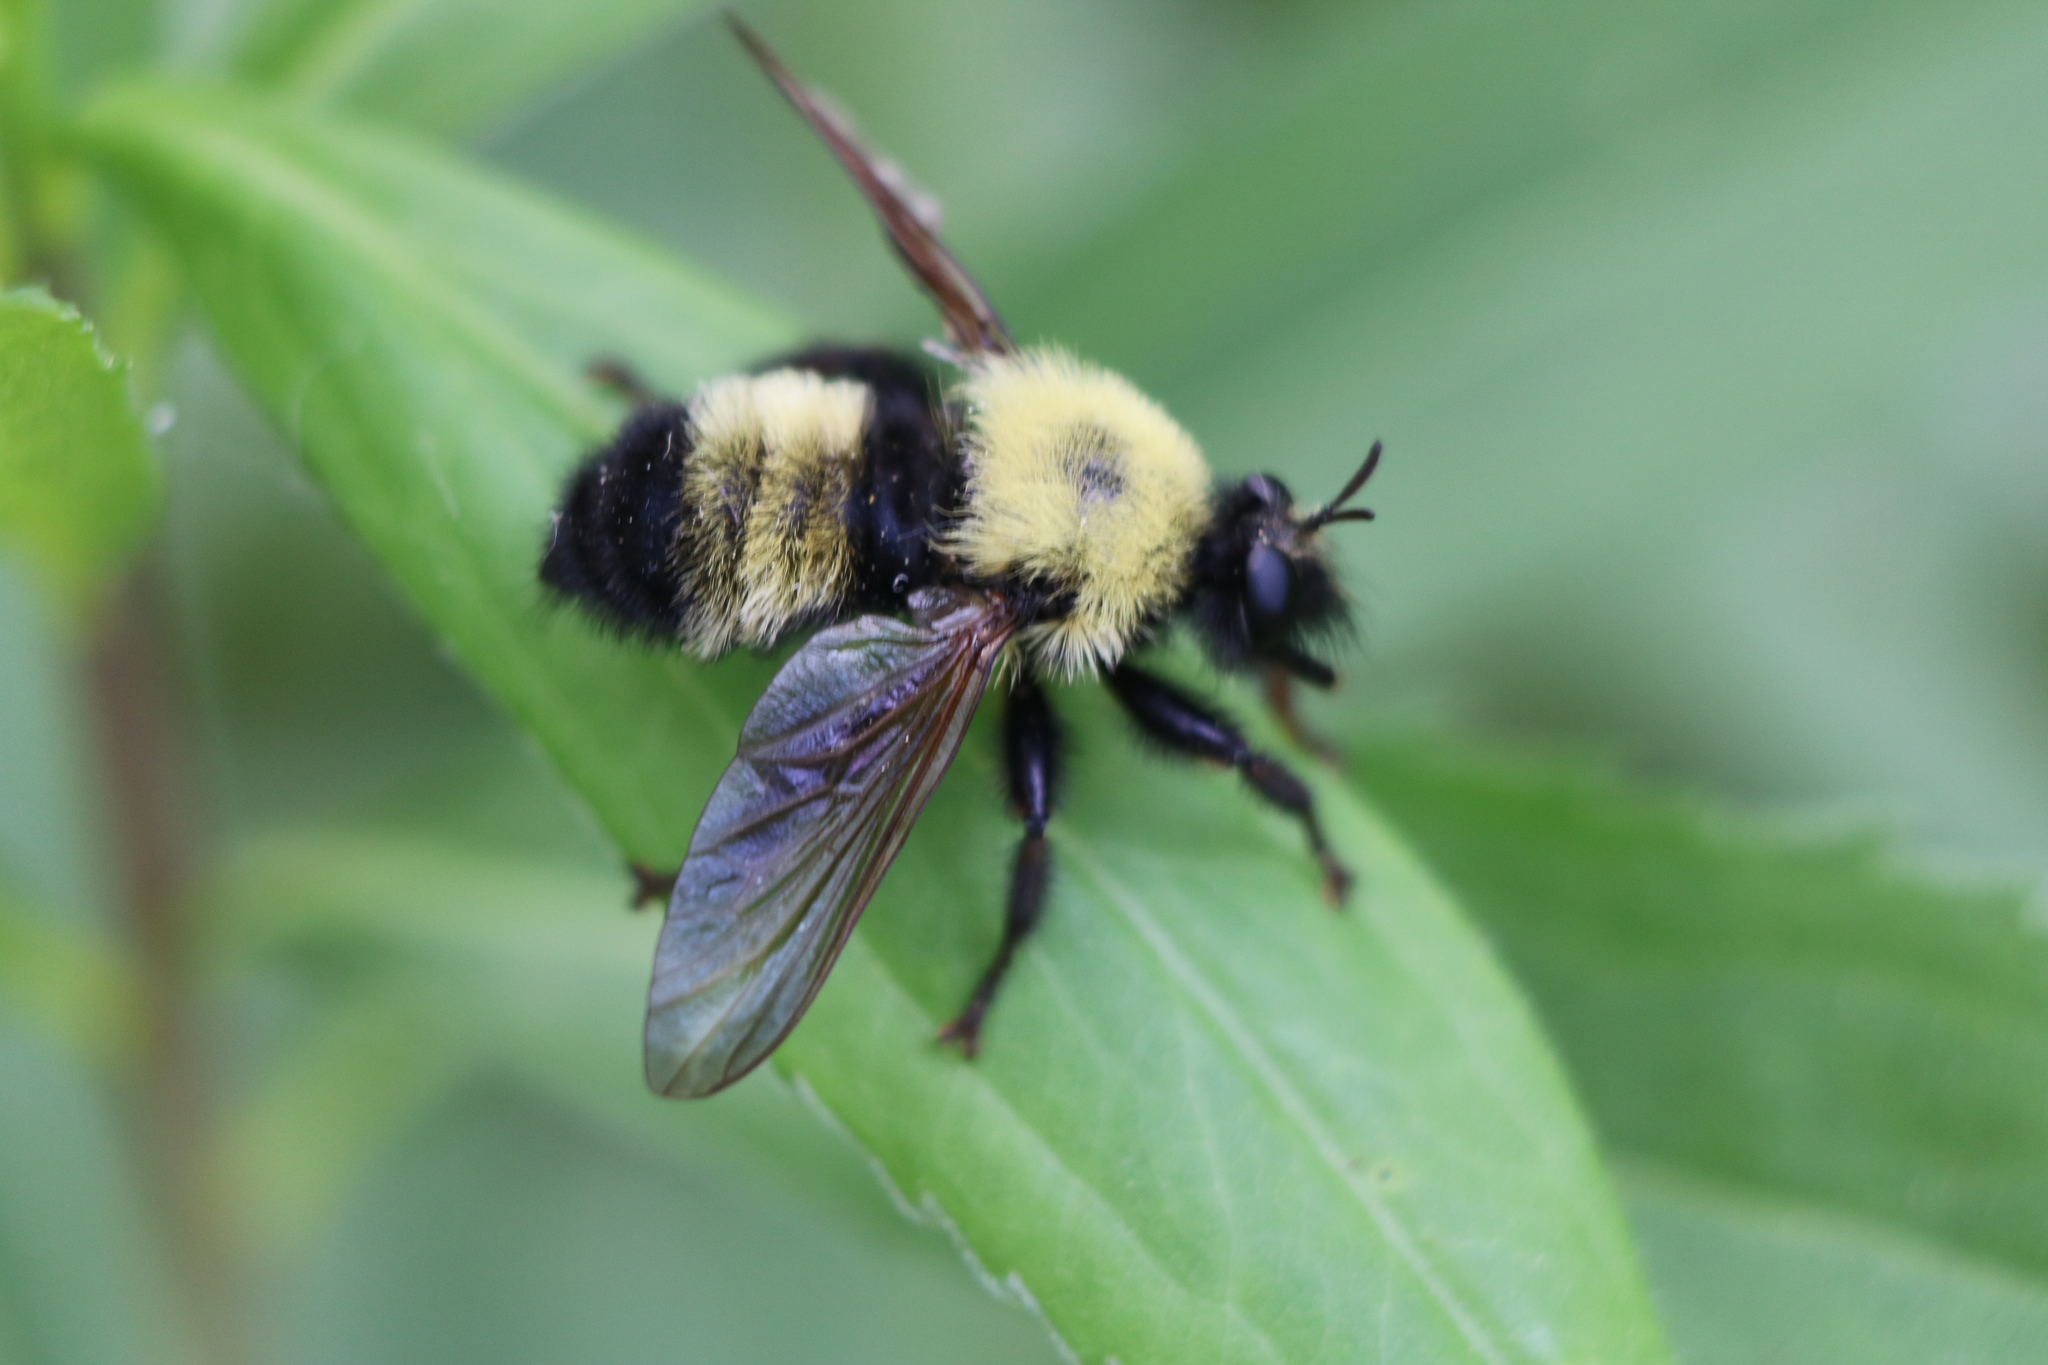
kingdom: Animalia
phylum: Arthropoda
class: Insecta
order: Diptera
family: Asilidae
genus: Laphria
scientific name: Laphria thoracica
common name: Bumble bee mimic robber fly
